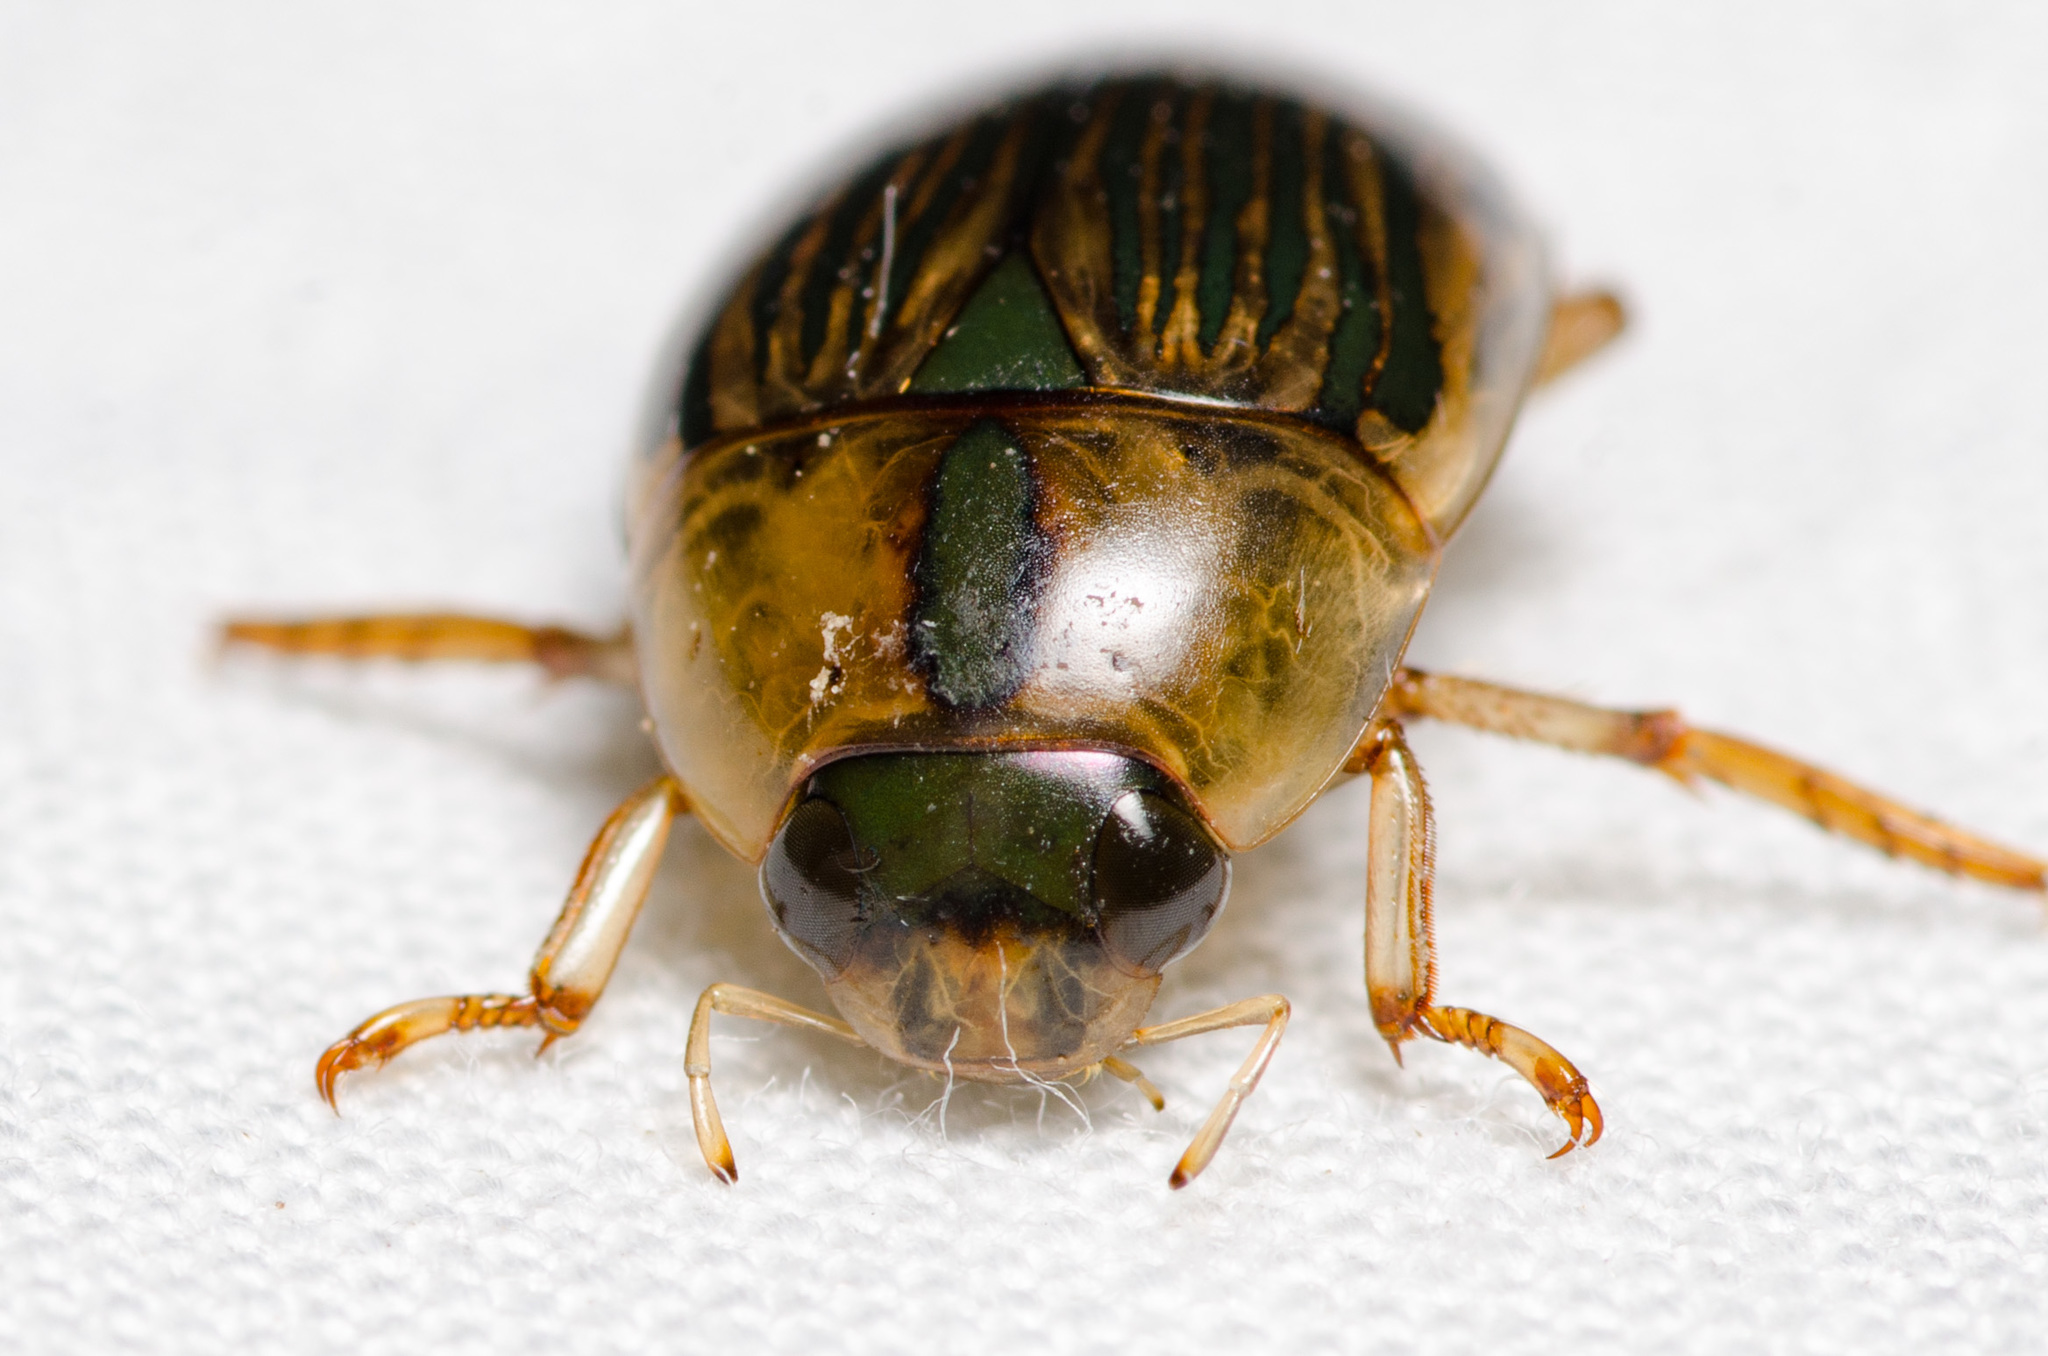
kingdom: Animalia
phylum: Arthropoda
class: Insecta
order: Coleoptera
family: Hydrophilidae
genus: Tropisternus
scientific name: Tropisternus collaris
